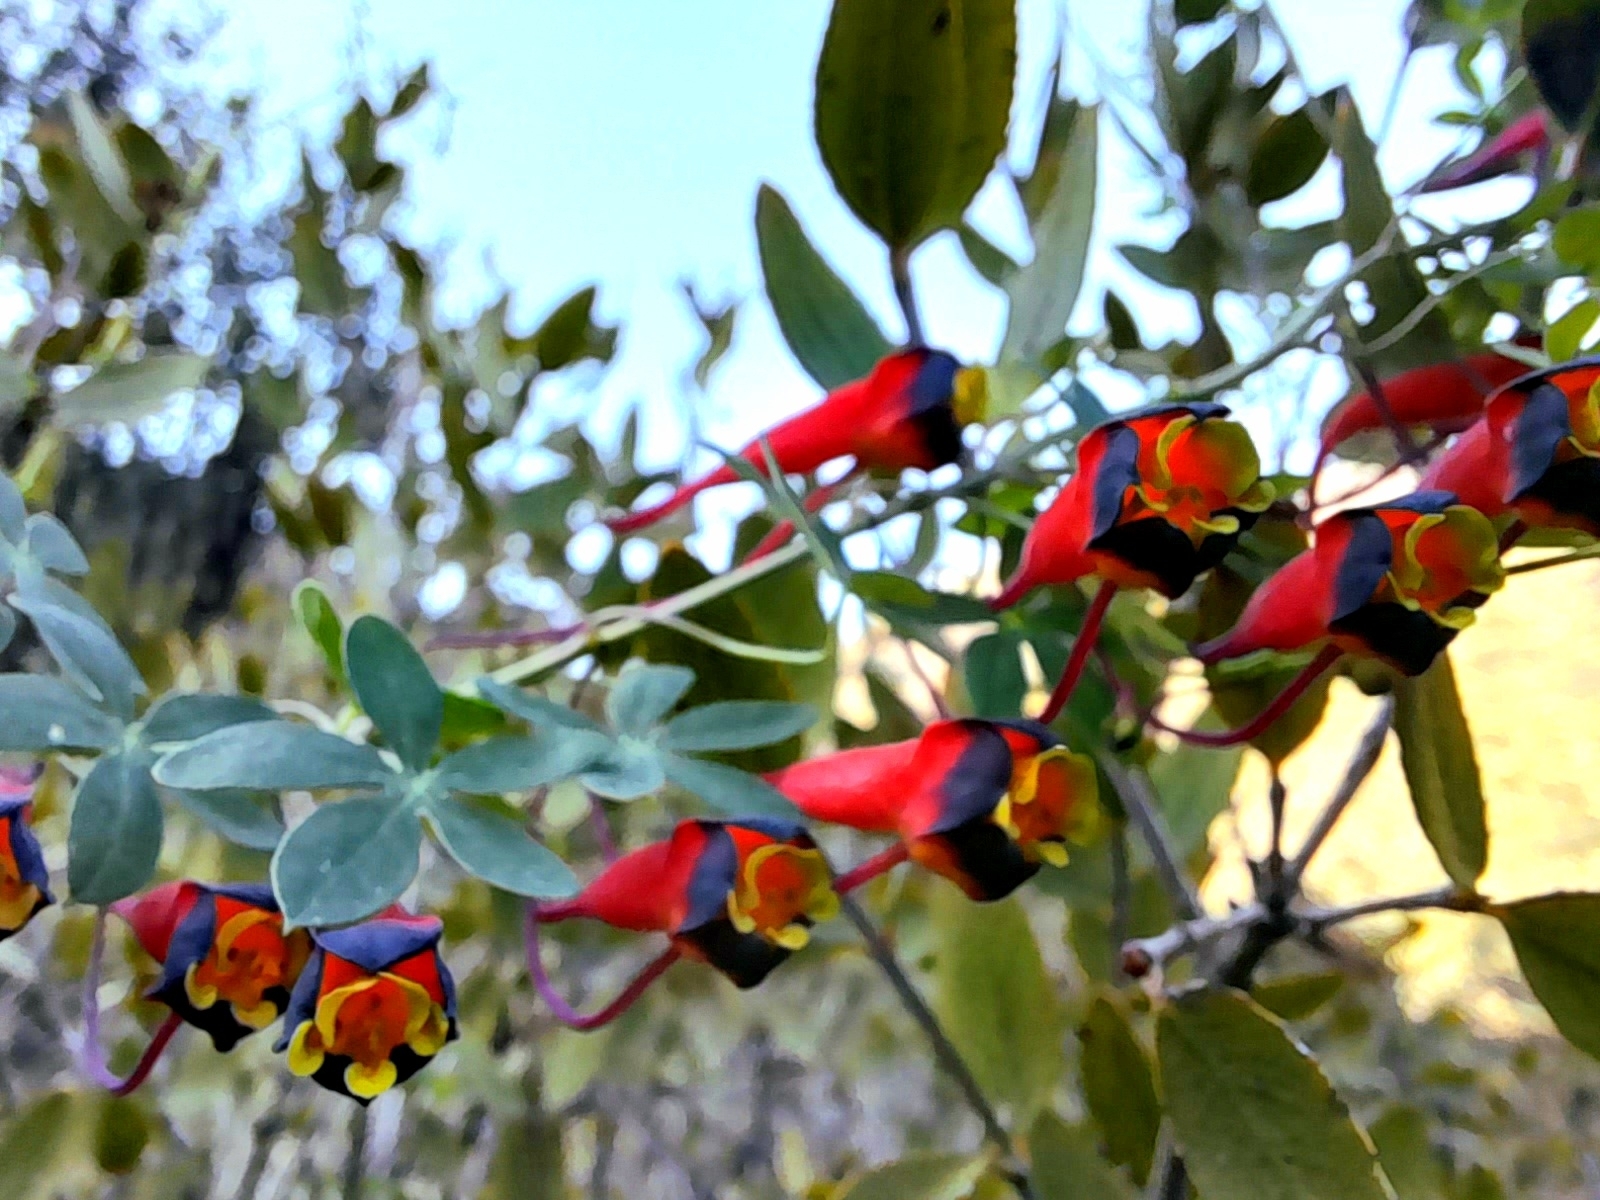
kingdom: Plantae
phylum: Tracheophyta
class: Magnoliopsida
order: Brassicales
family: Tropaeolaceae
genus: Tropaeolum
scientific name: Tropaeolum tricolor
